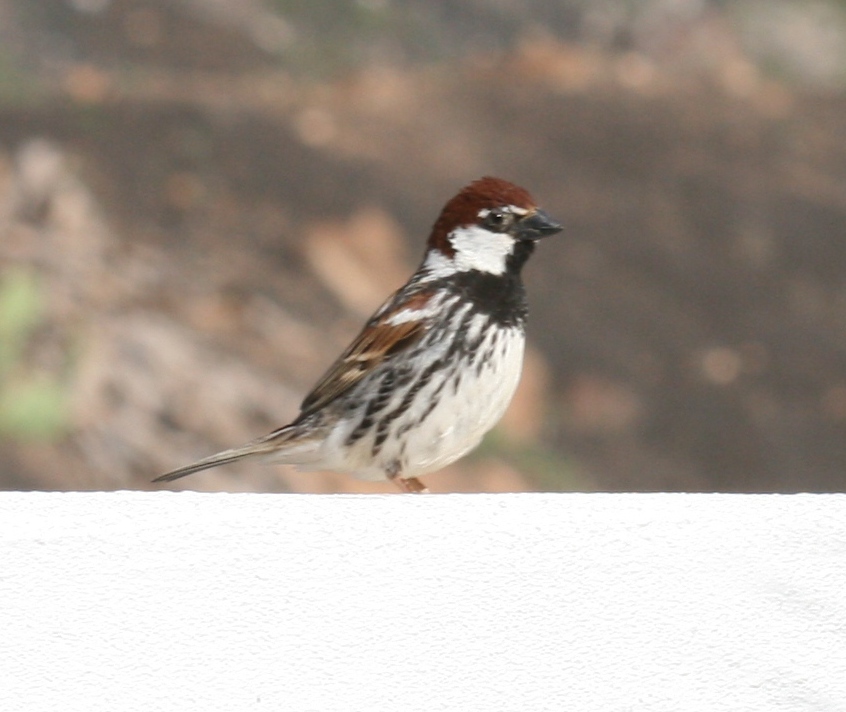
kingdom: Animalia
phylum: Chordata
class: Aves
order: Passeriformes
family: Passeridae
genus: Passer
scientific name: Passer hispaniolensis
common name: Spanish sparrow
